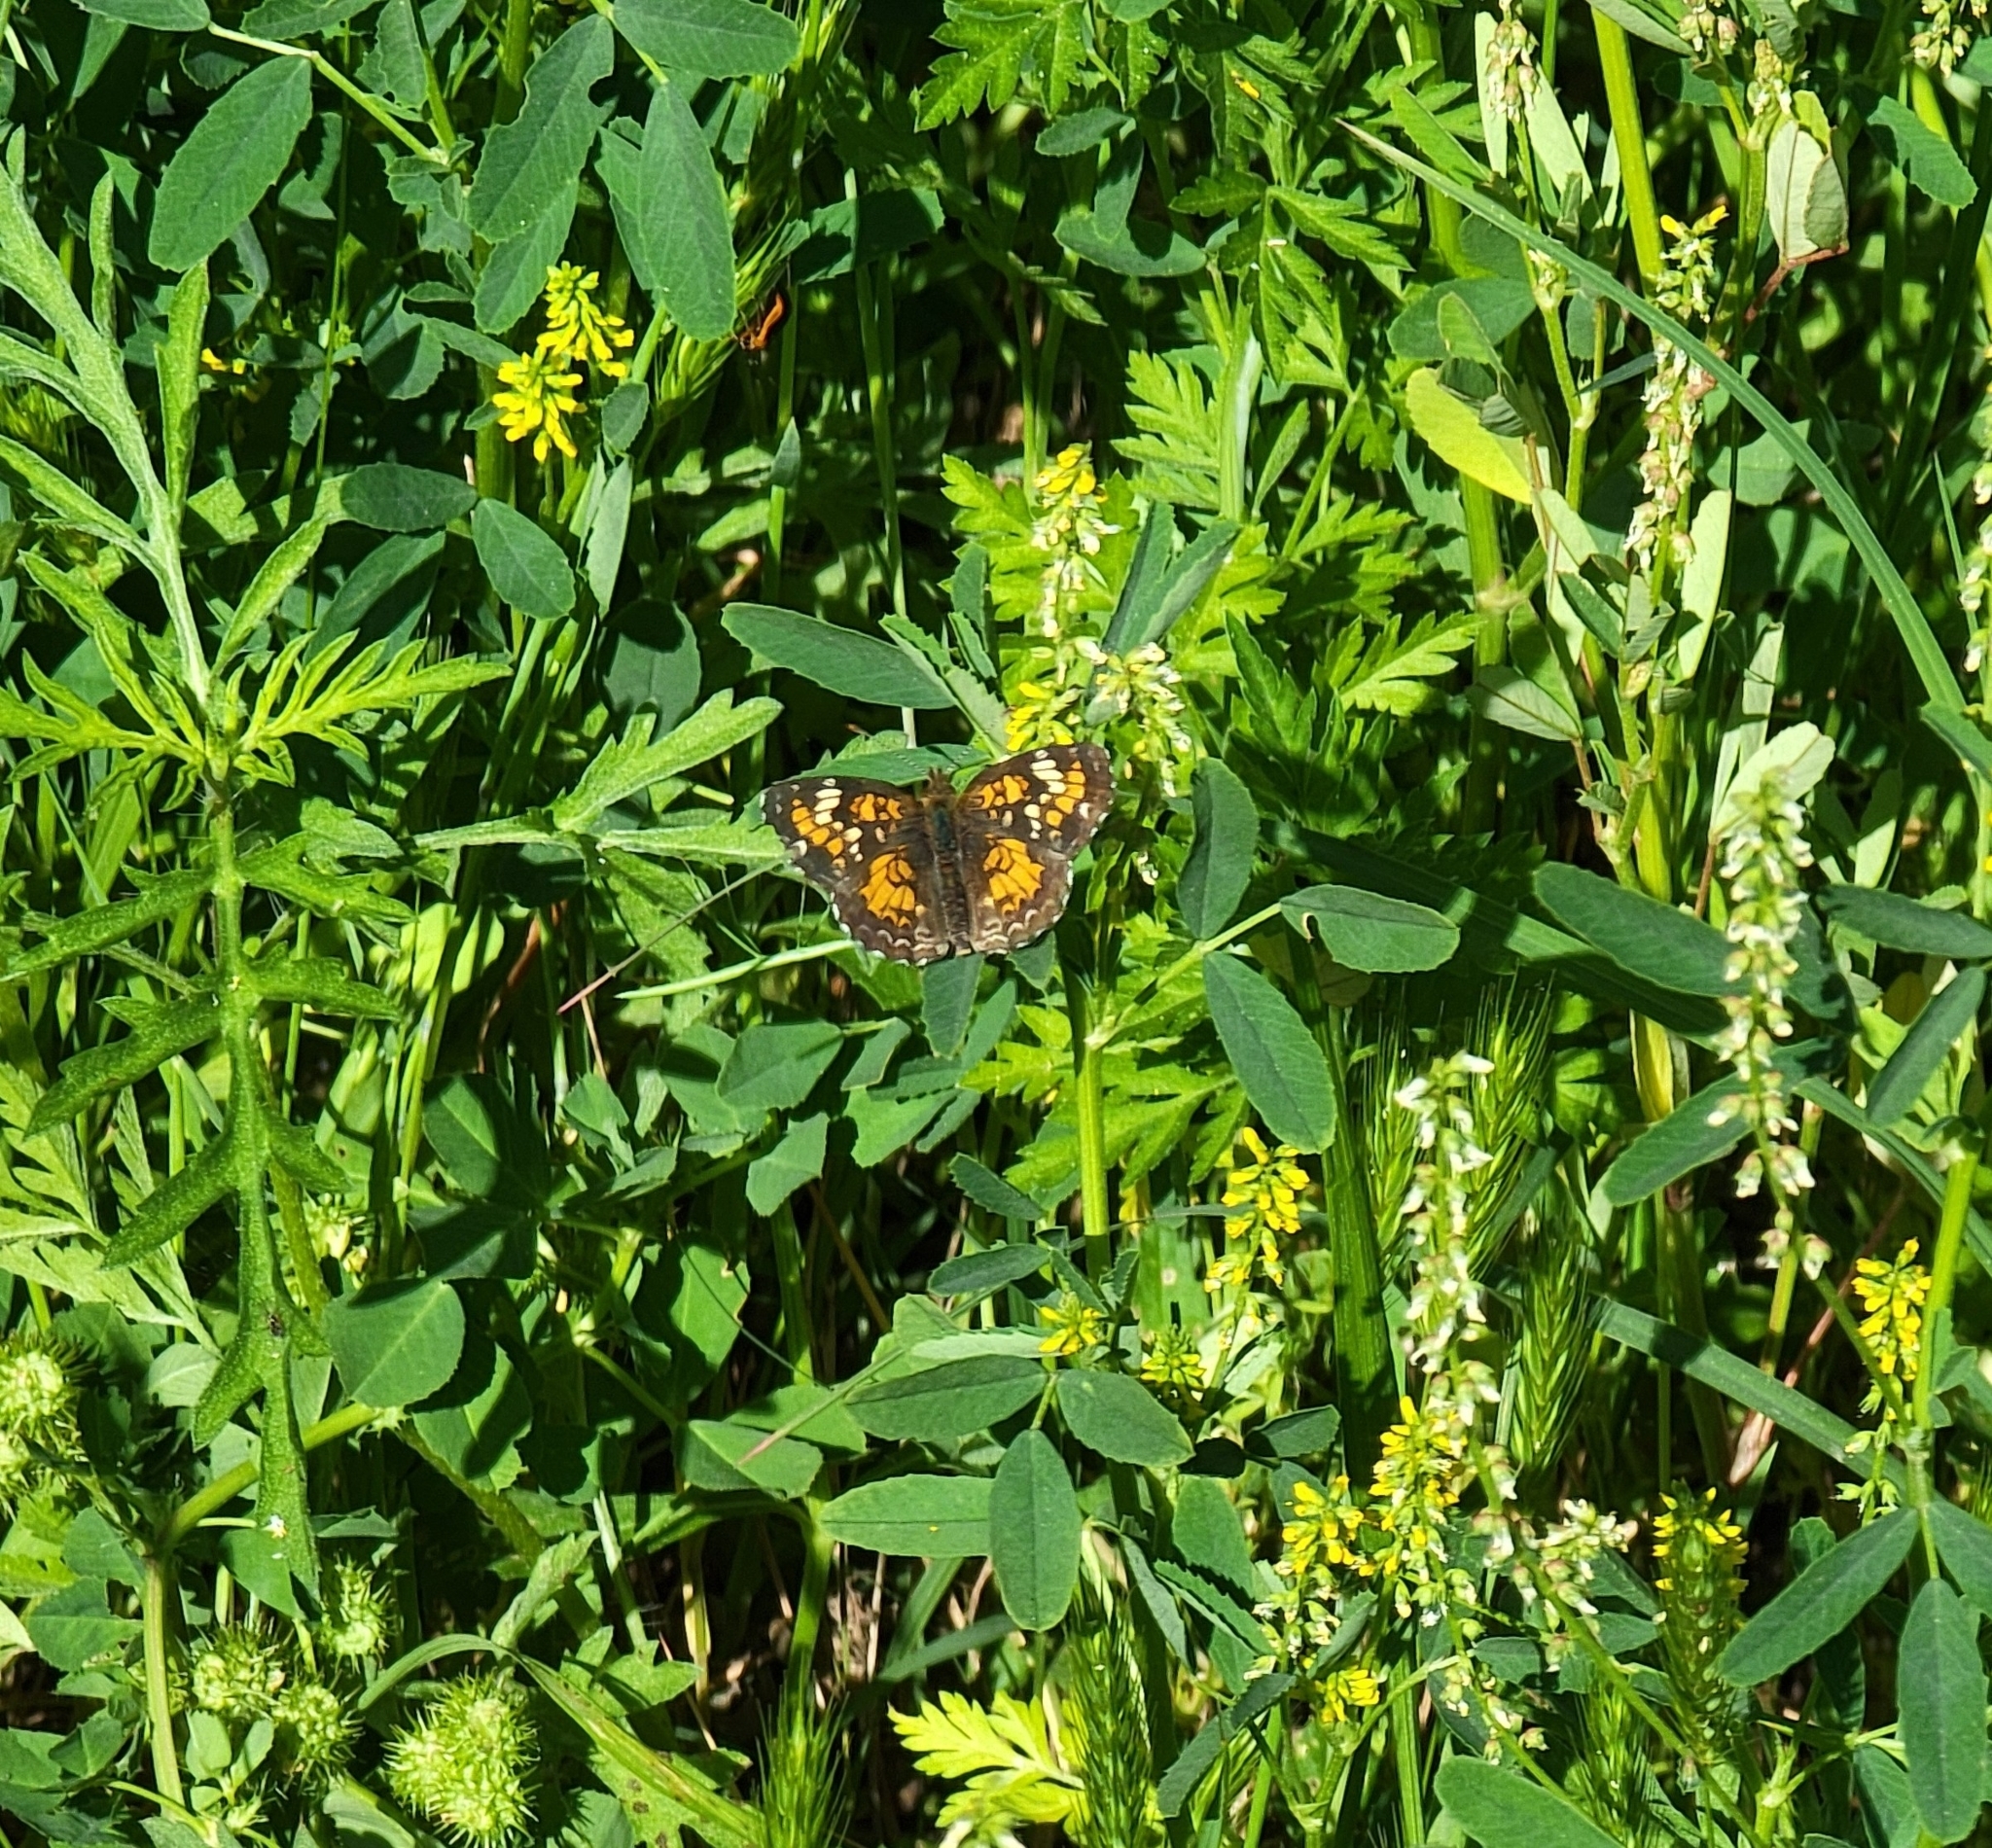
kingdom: Animalia
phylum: Arthropoda
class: Insecta
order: Lepidoptera
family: Nymphalidae
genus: Phyciodes
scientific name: Phyciodes phaon
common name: Phaon crescent
